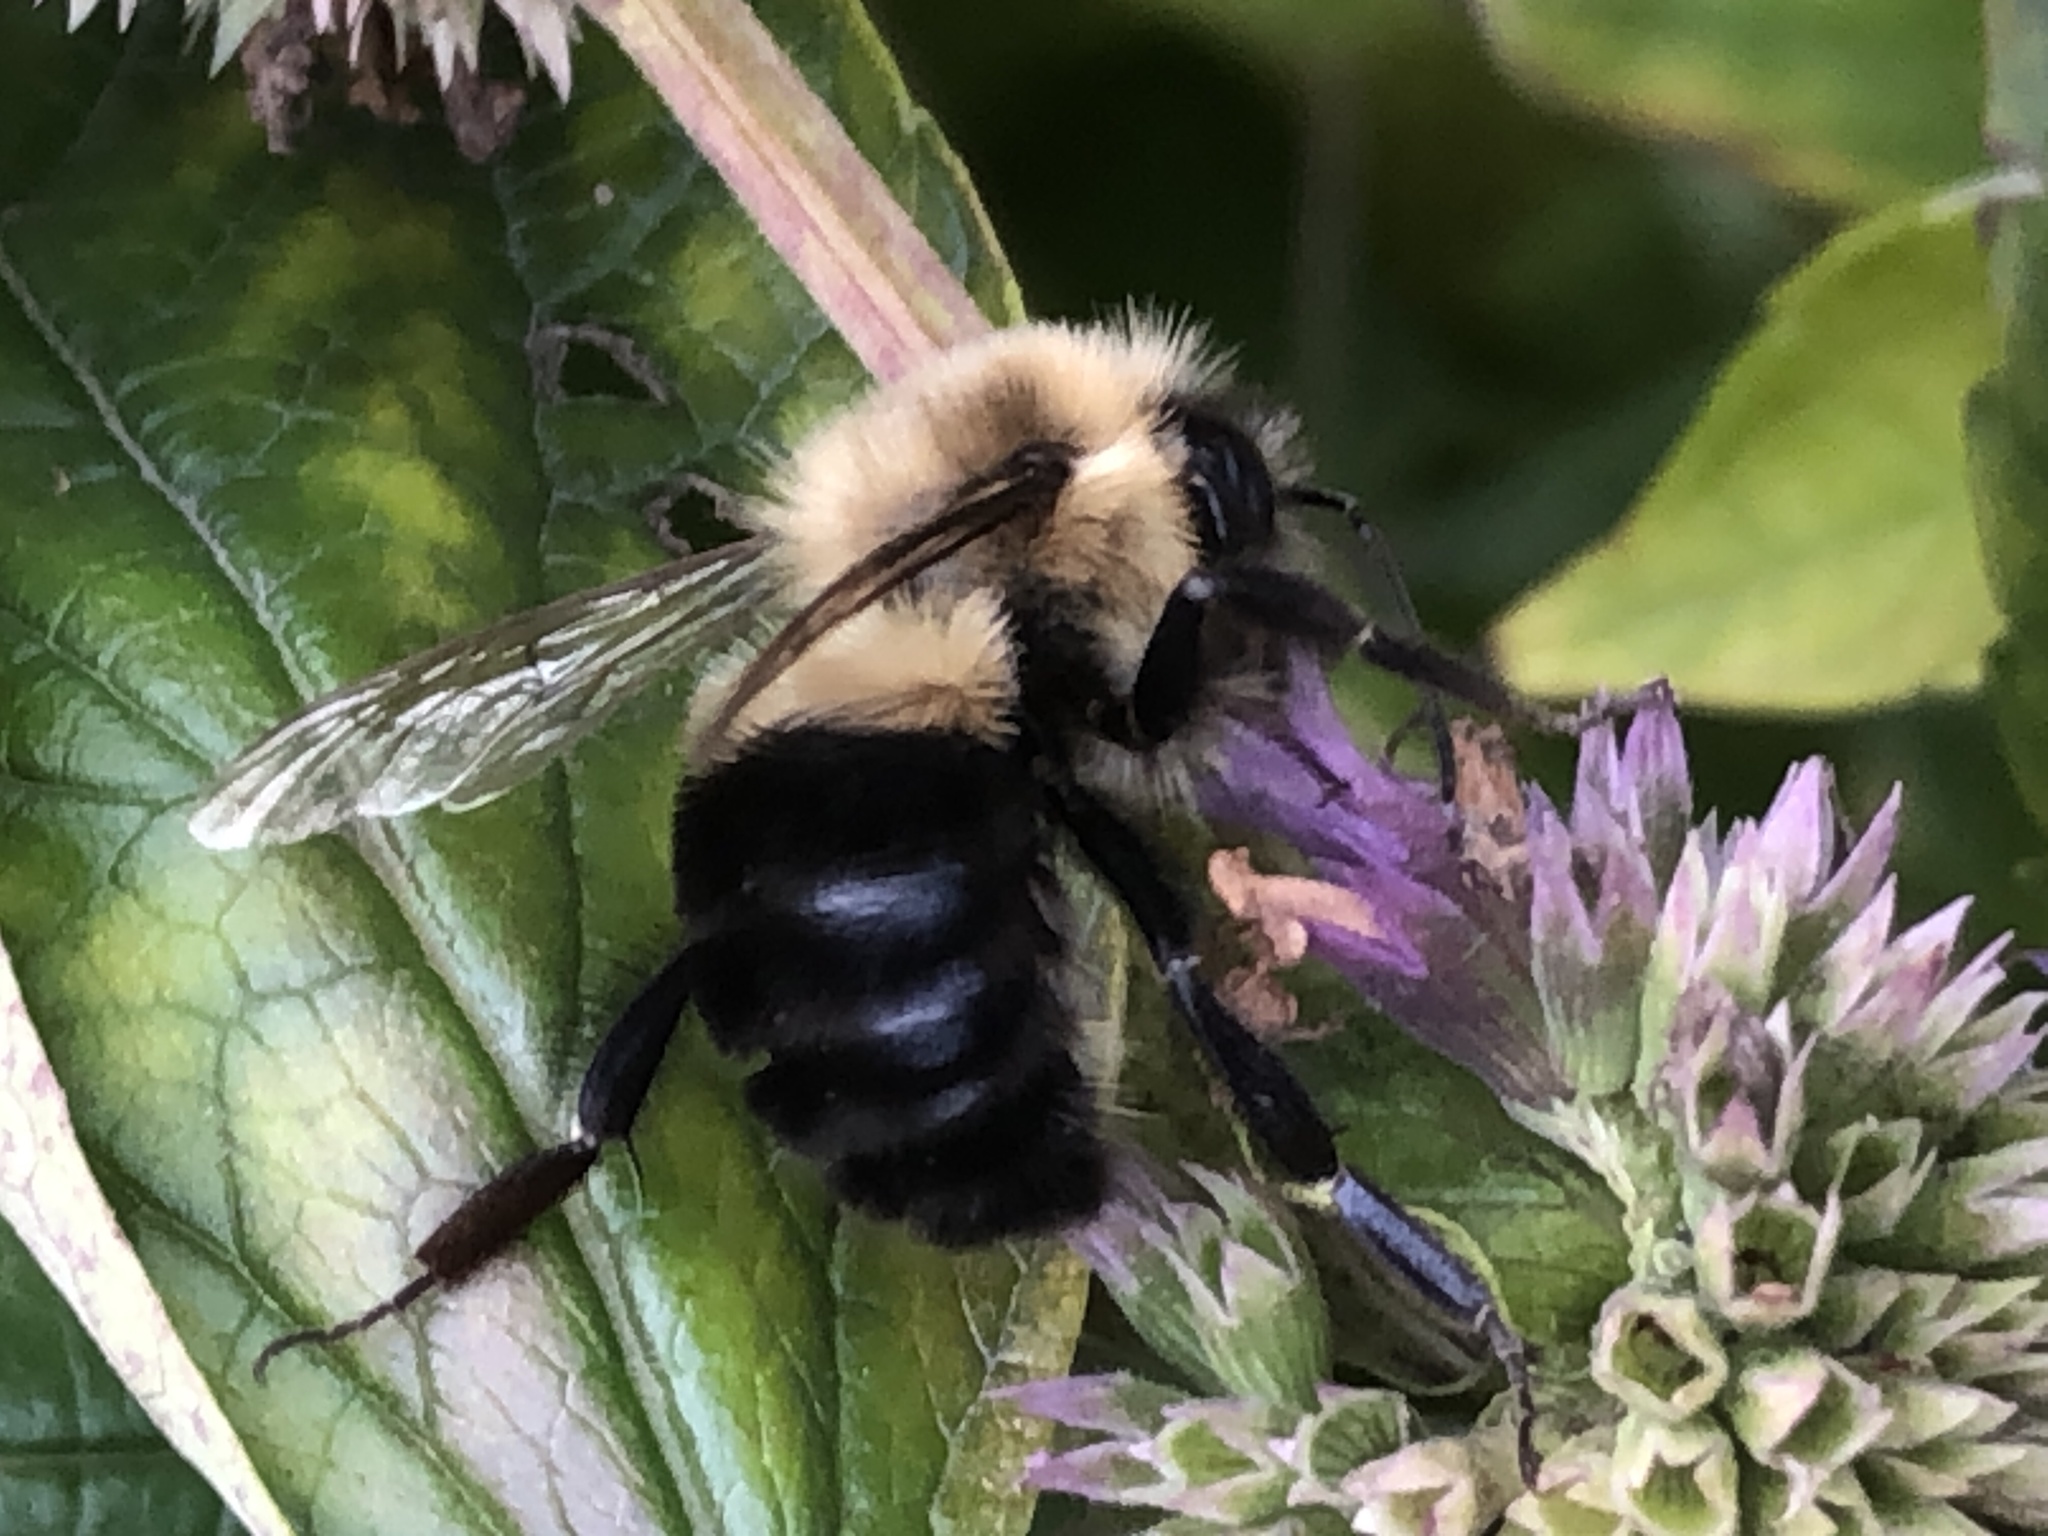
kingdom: Animalia
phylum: Arthropoda
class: Insecta
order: Hymenoptera
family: Apidae
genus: Bombus
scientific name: Bombus impatiens
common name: Common eastern bumble bee
